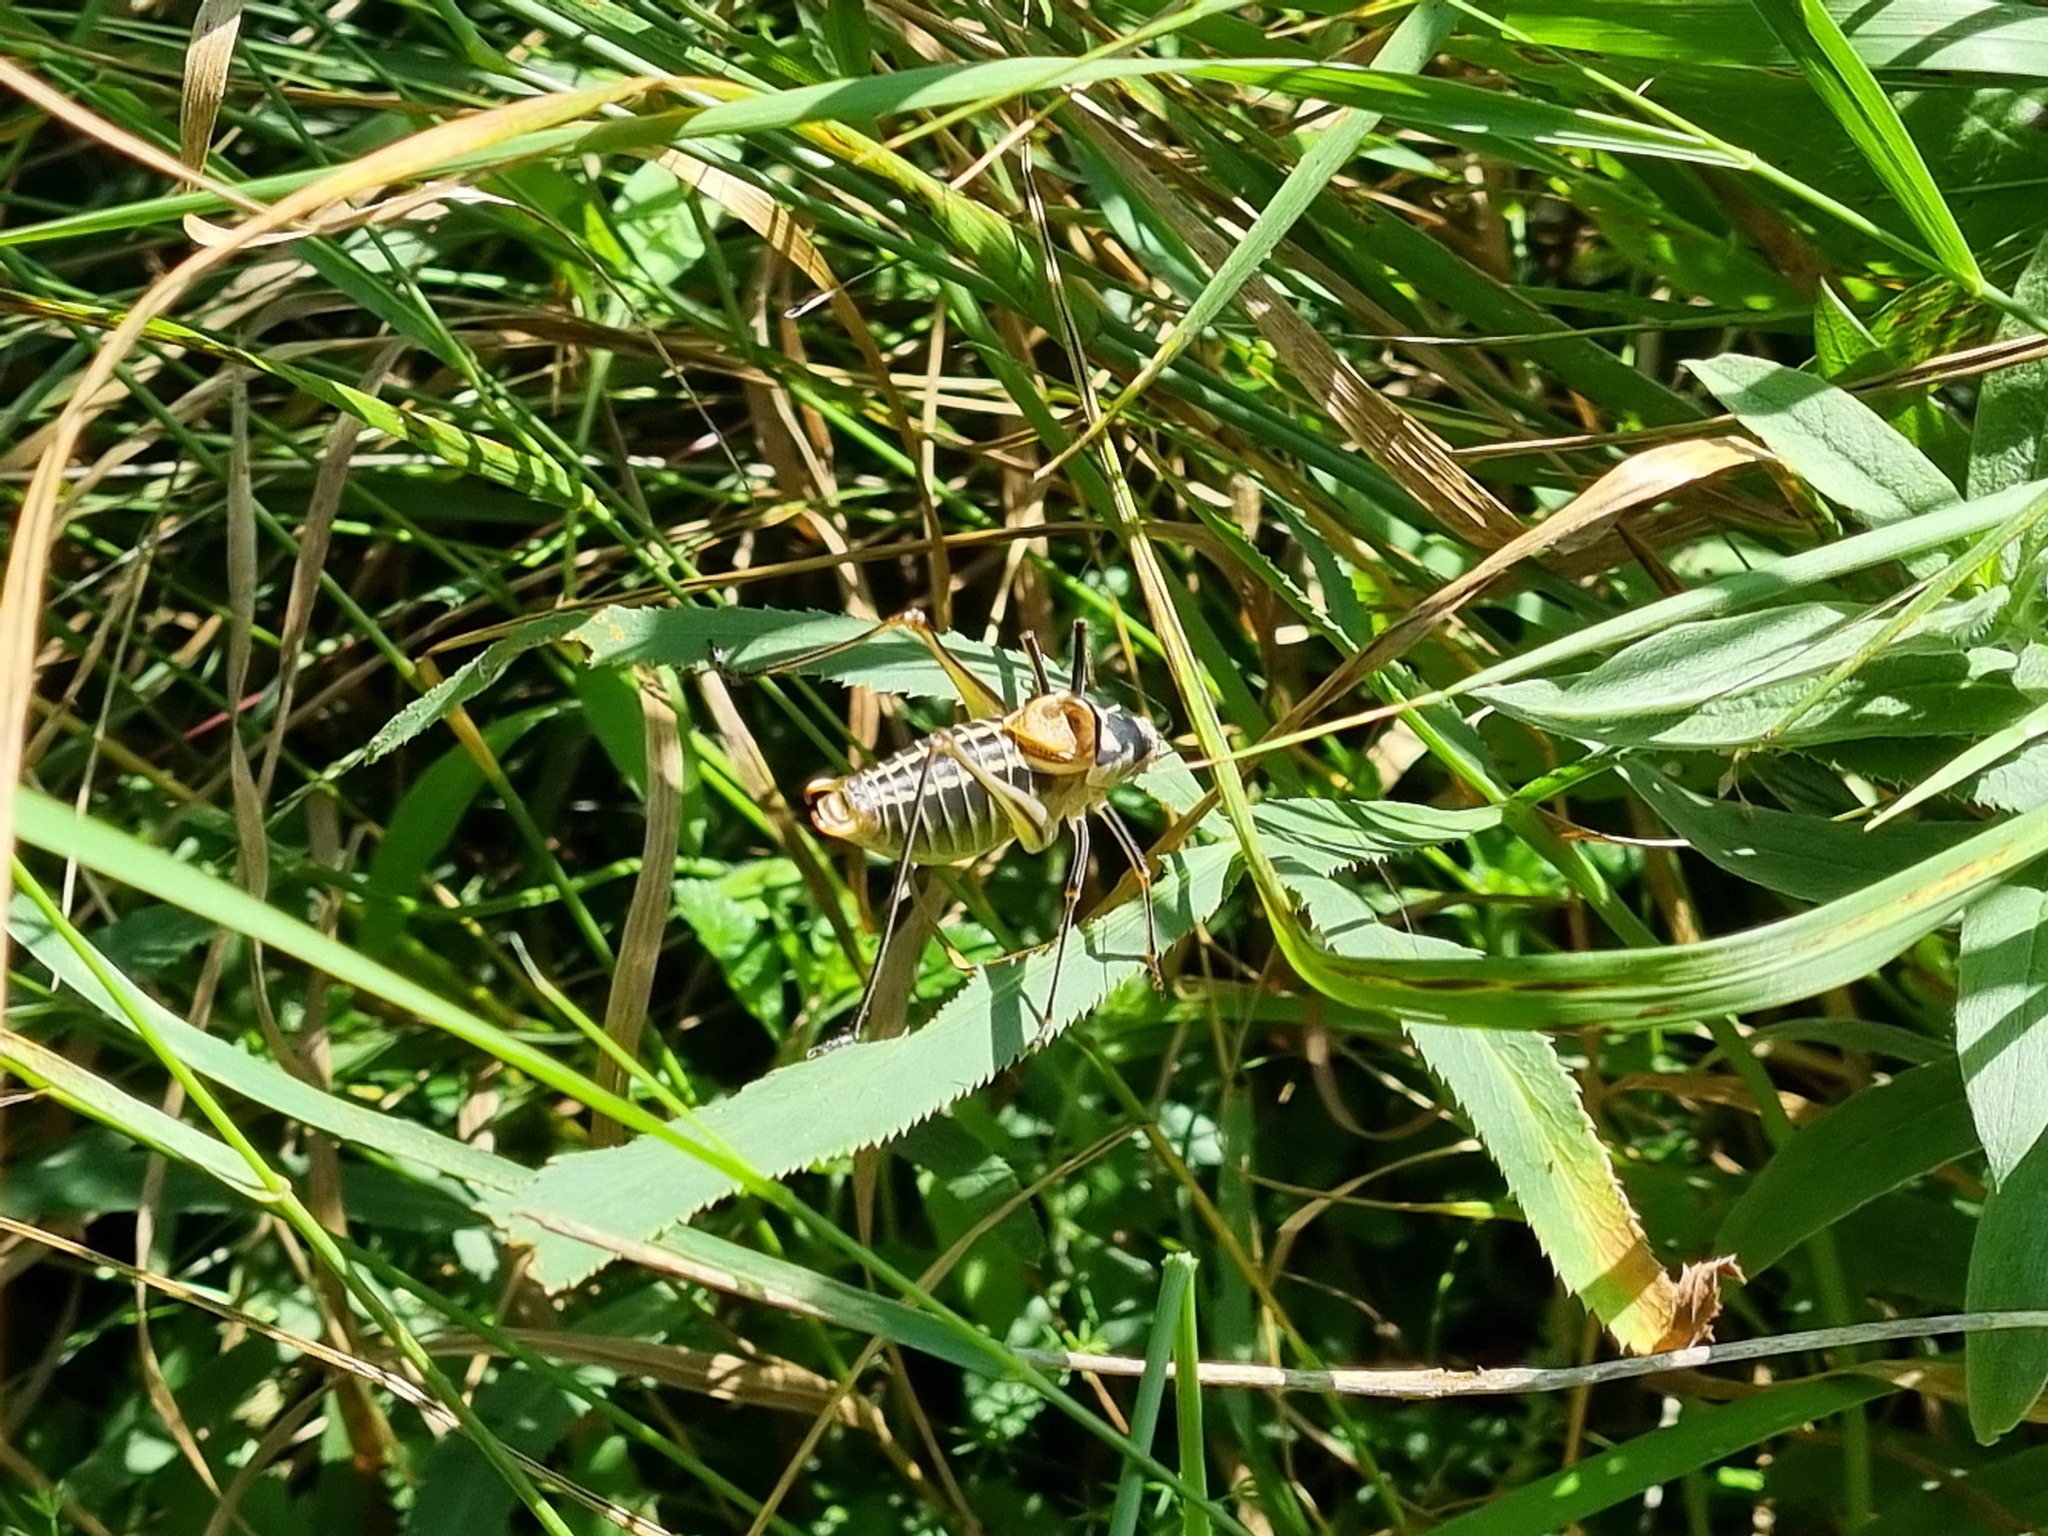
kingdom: Plantae
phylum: Tracheophyta
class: Magnoliopsida
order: Apiales
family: Apiaceae
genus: Falcaria
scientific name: Falcaria vulgaris
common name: Longleaf
